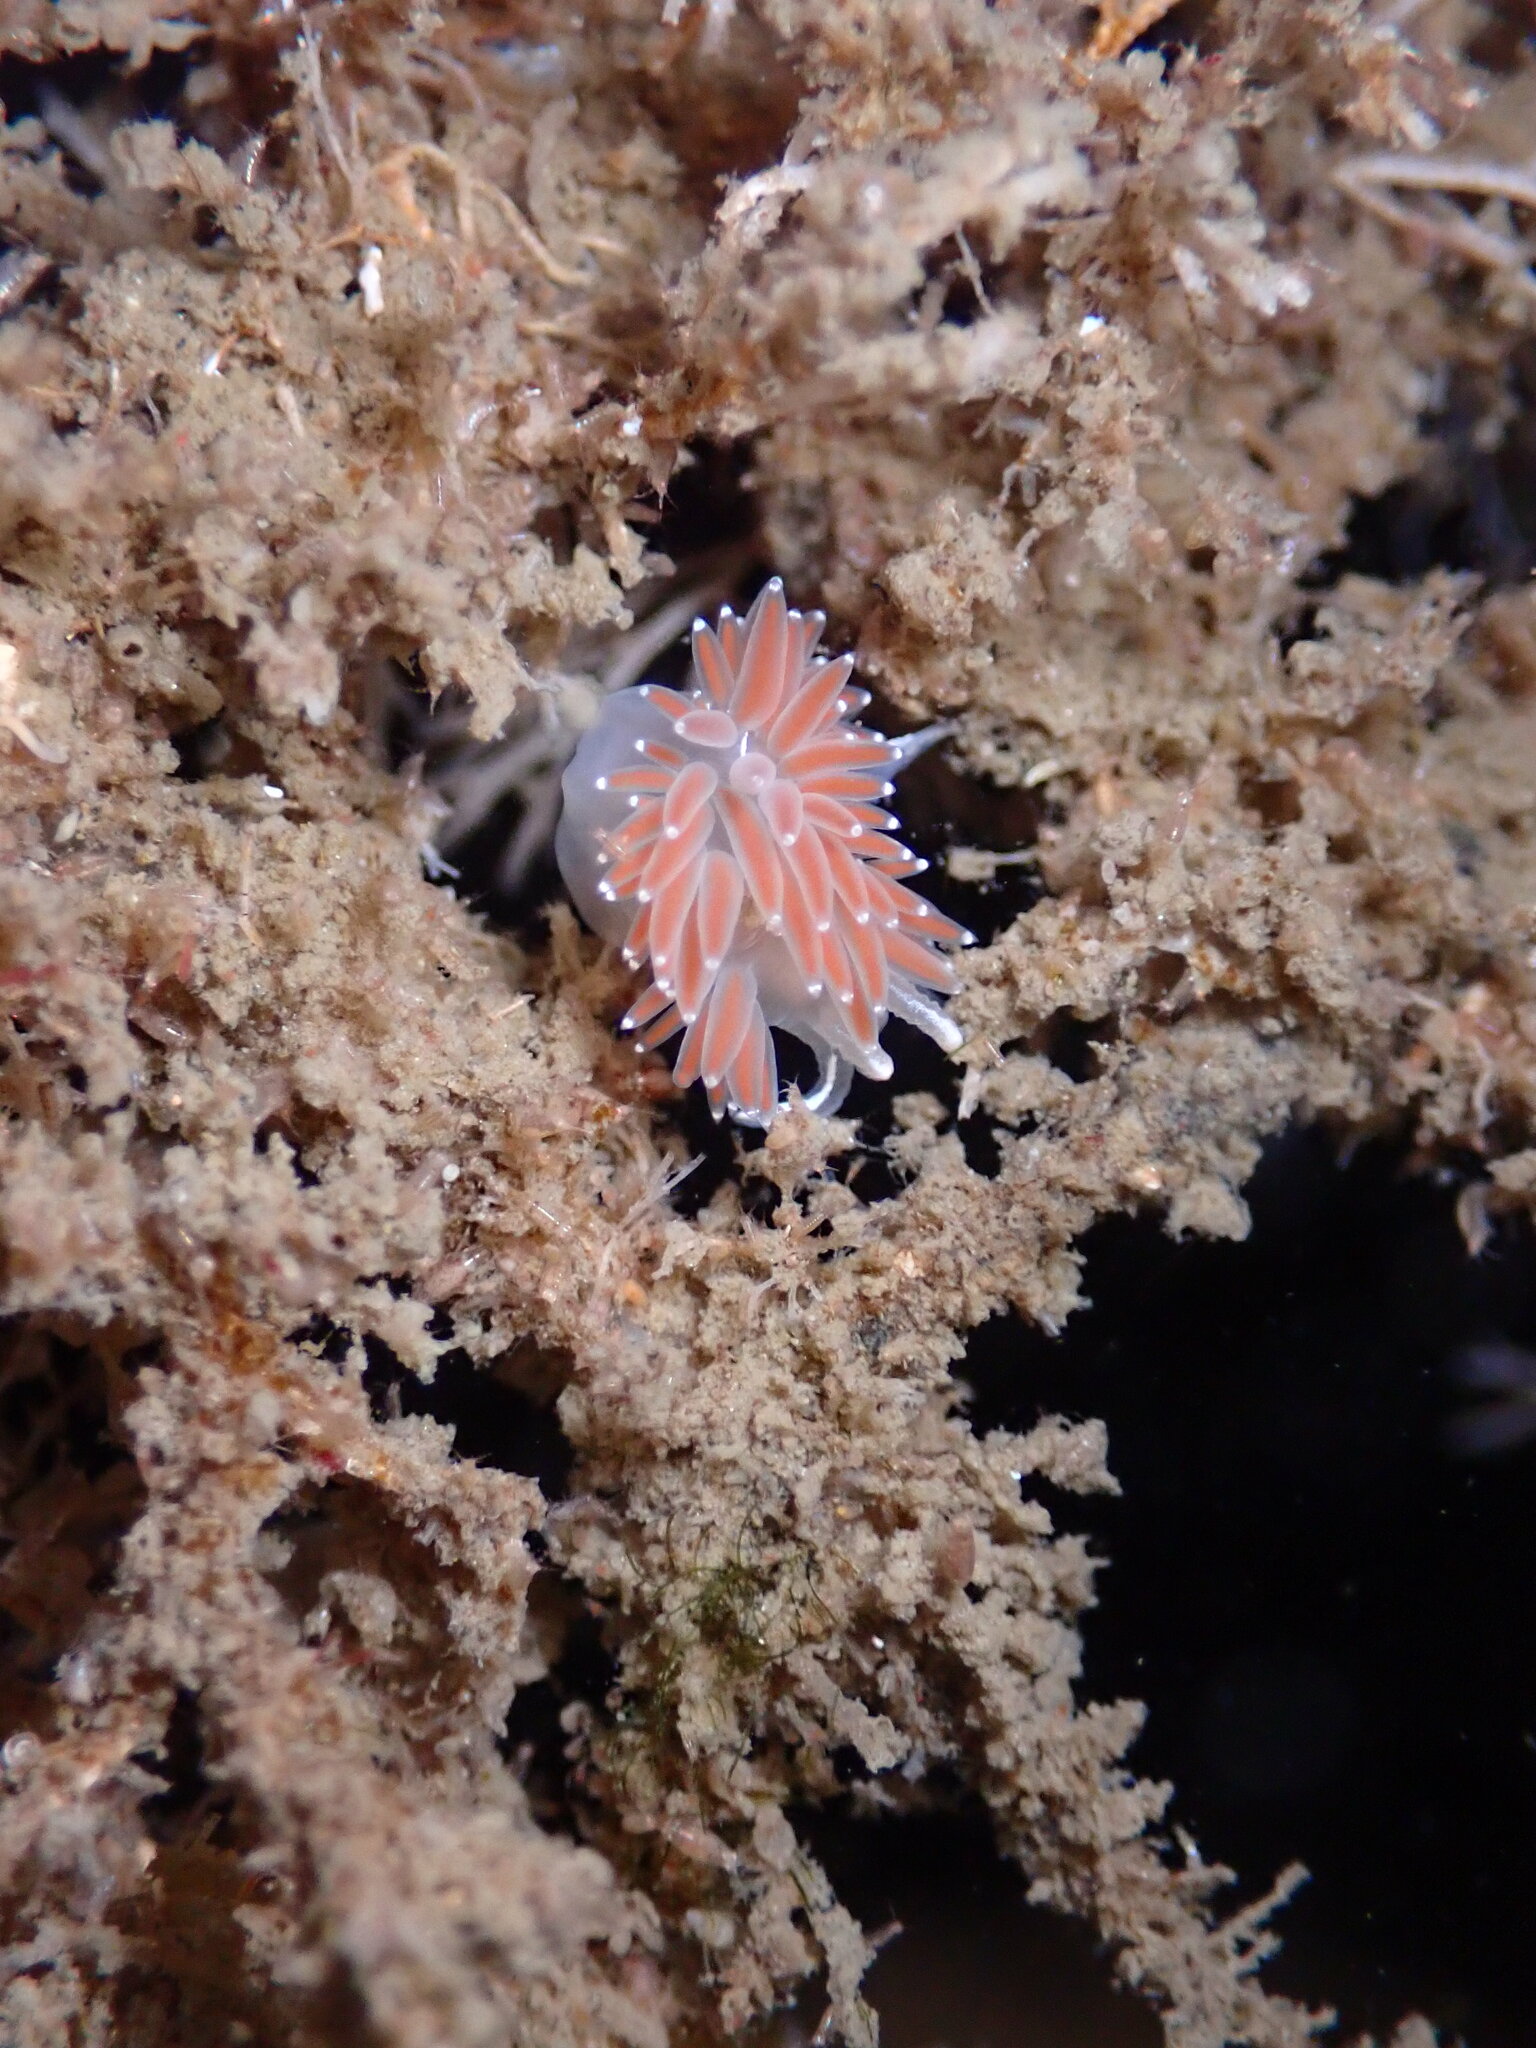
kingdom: Animalia
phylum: Mollusca
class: Gastropoda
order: Nudibranchia
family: Coryphellidae
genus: Coryphella
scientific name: Coryphella verrucosa
